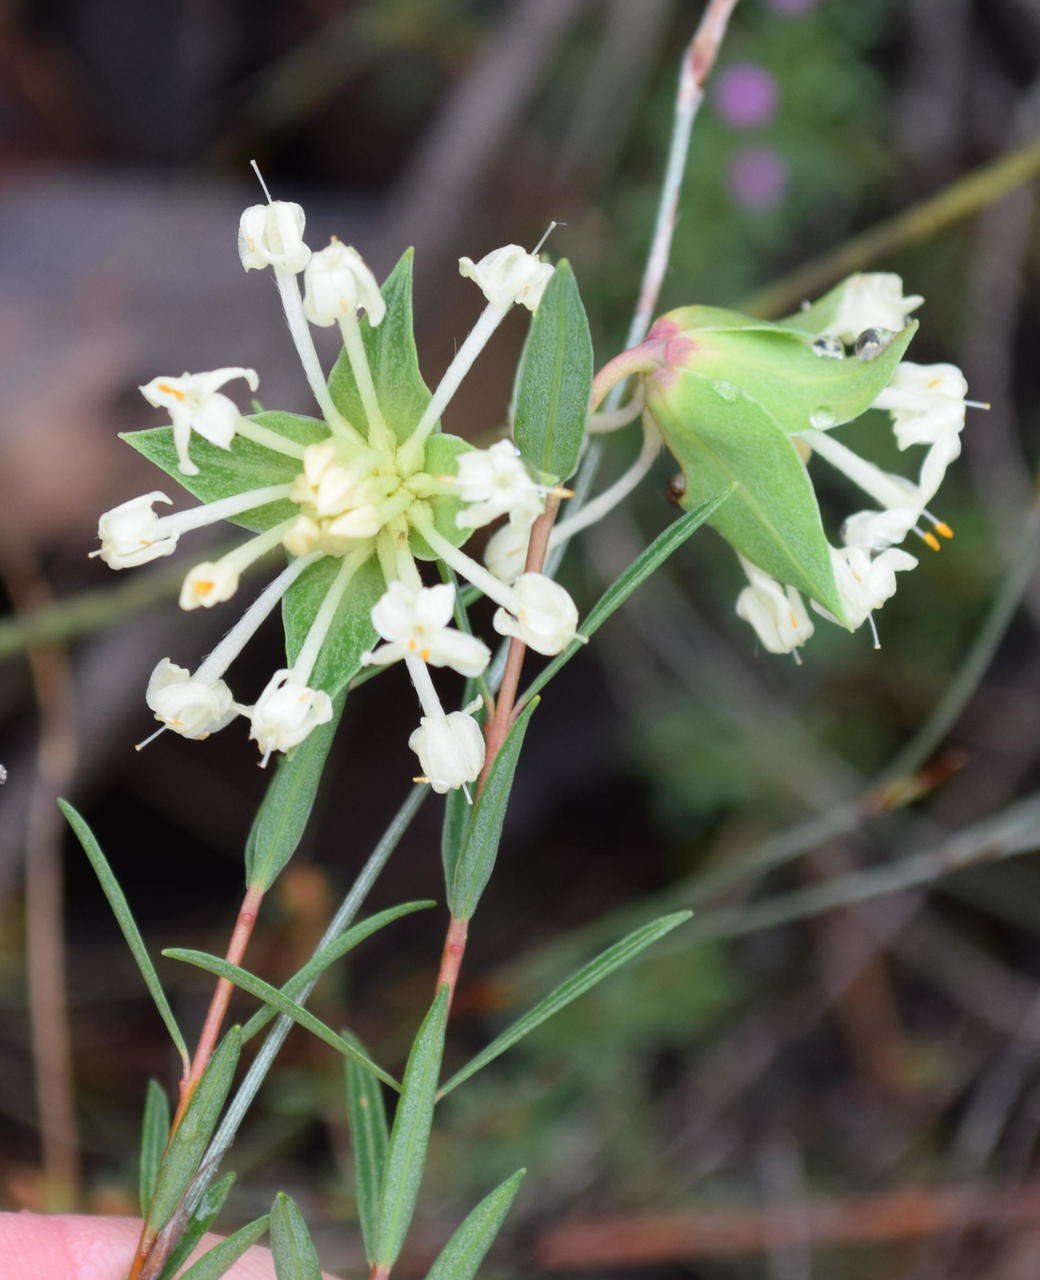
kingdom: Plantae
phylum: Tracheophyta
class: Magnoliopsida
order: Malvales
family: Thymelaeaceae
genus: Pimelea
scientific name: Pimelea linifolia
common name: Queen-of-the-bush
